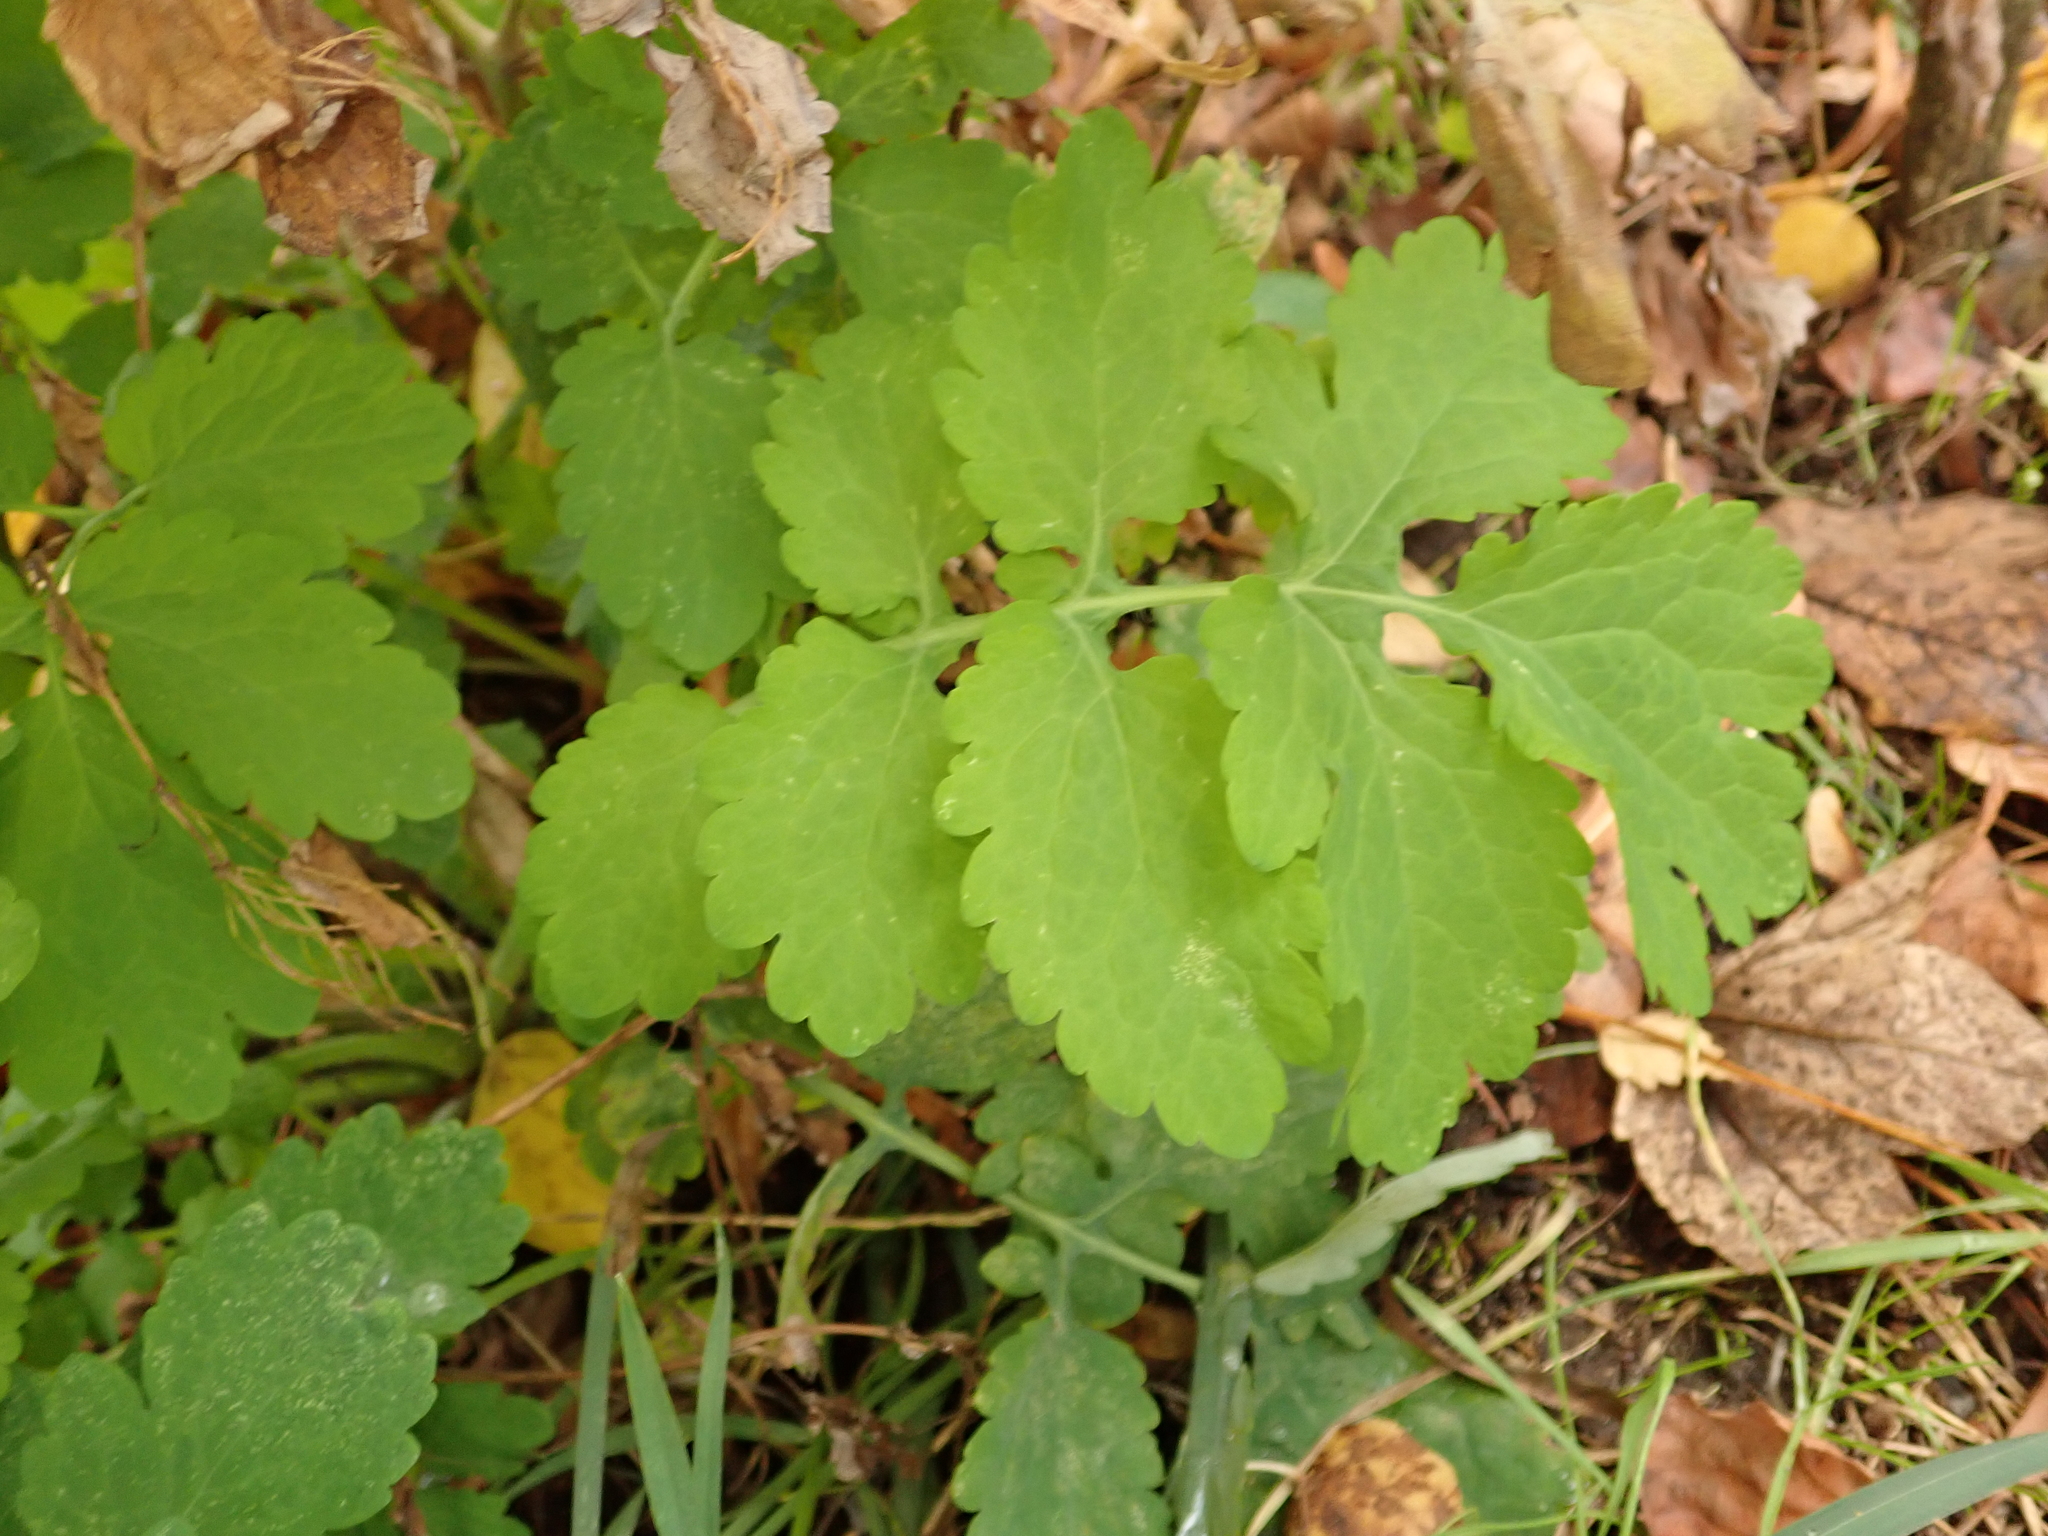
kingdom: Plantae
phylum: Tracheophyta
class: Magnoliopsida
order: Ranunculales
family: Papaveraceae
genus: Chelidonium
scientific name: Chelidonium majus
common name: Greater celandine
